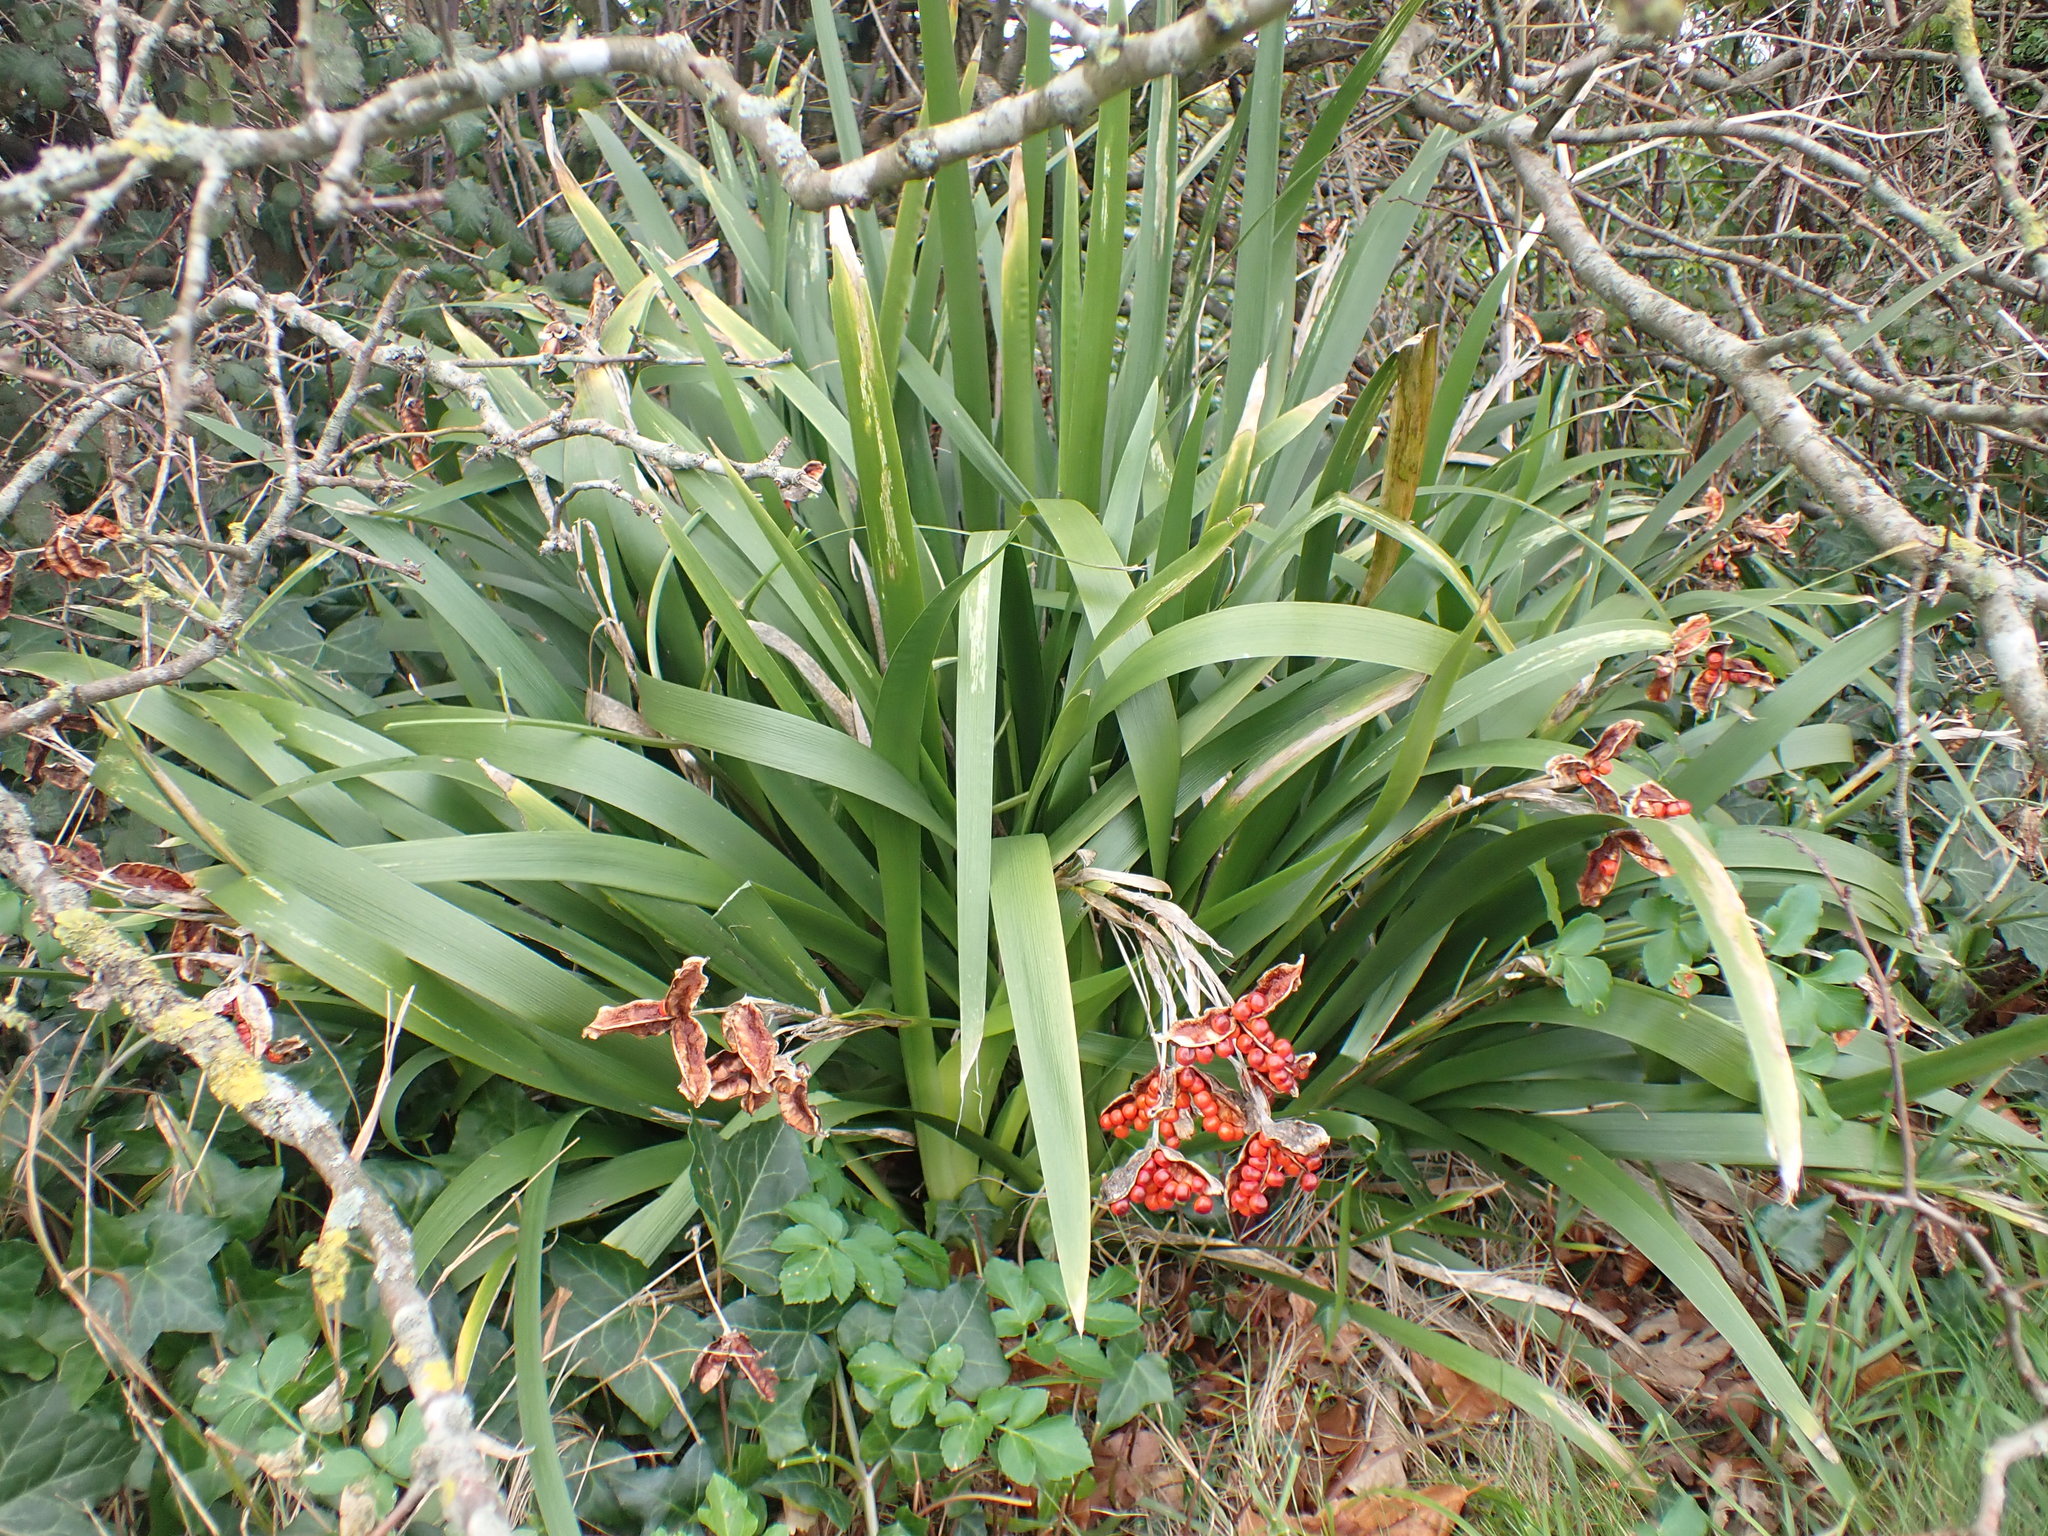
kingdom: Plantae
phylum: Tracheophyta
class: Liliopsida
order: Asparagales
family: Iridaceae
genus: Iris
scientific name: Iris foetidissima
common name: Stinking iris
